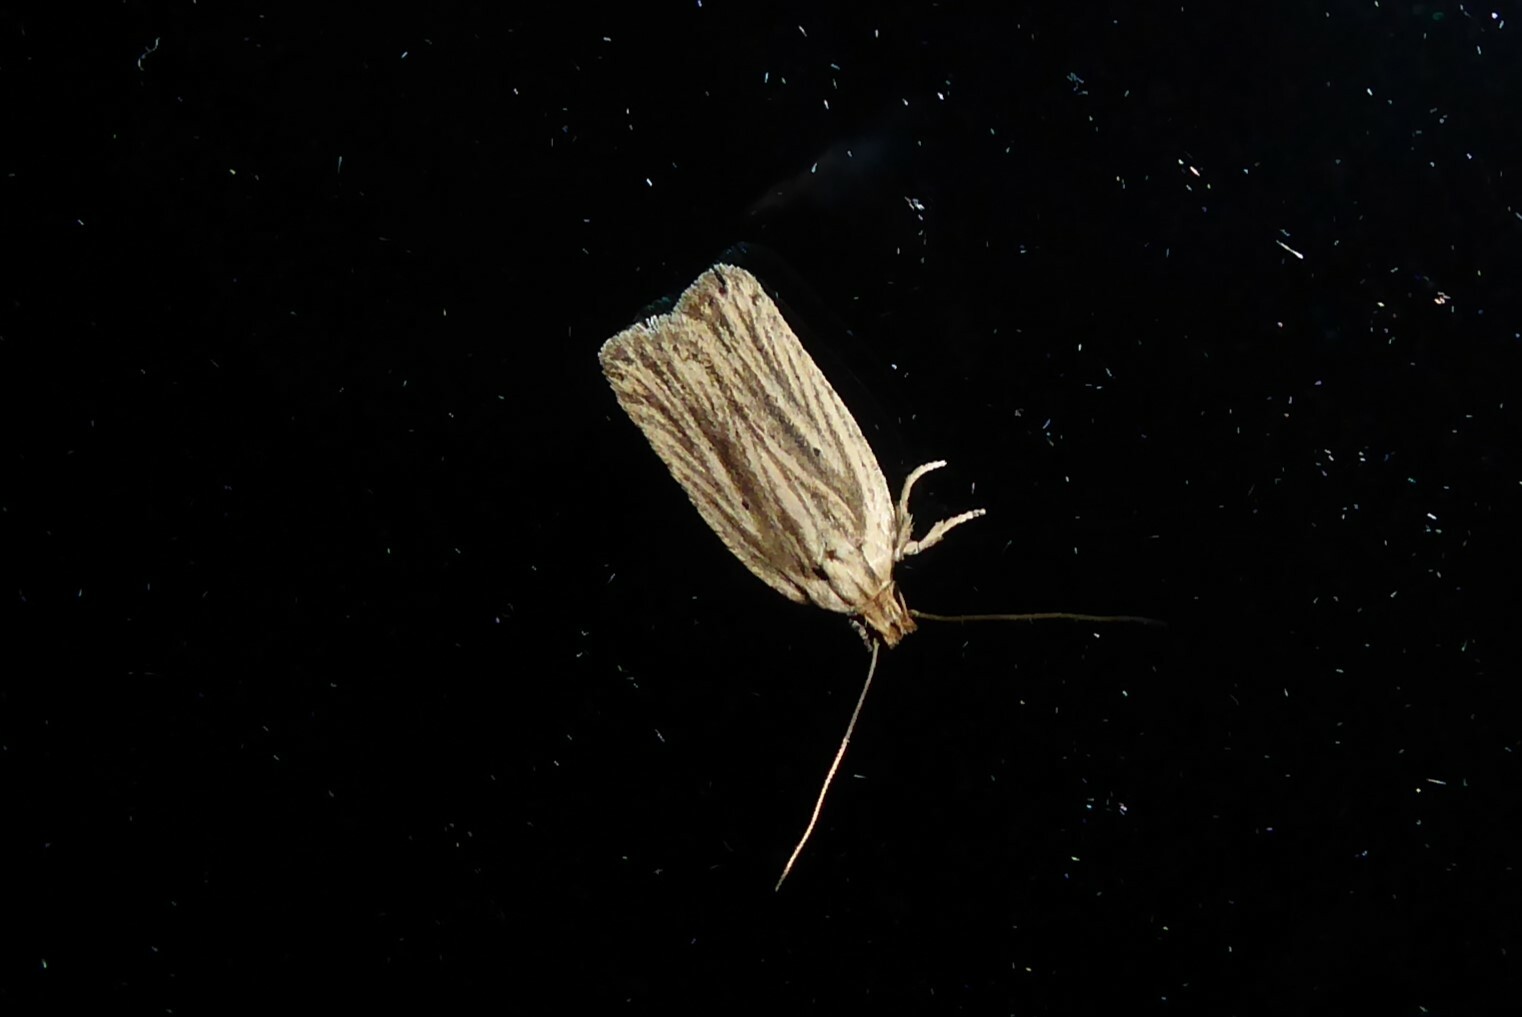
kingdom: Animalia
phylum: Arthropoda
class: Insecta
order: Lepidoptera
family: Depressariidae
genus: Agonopterix
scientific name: Agonopterix
